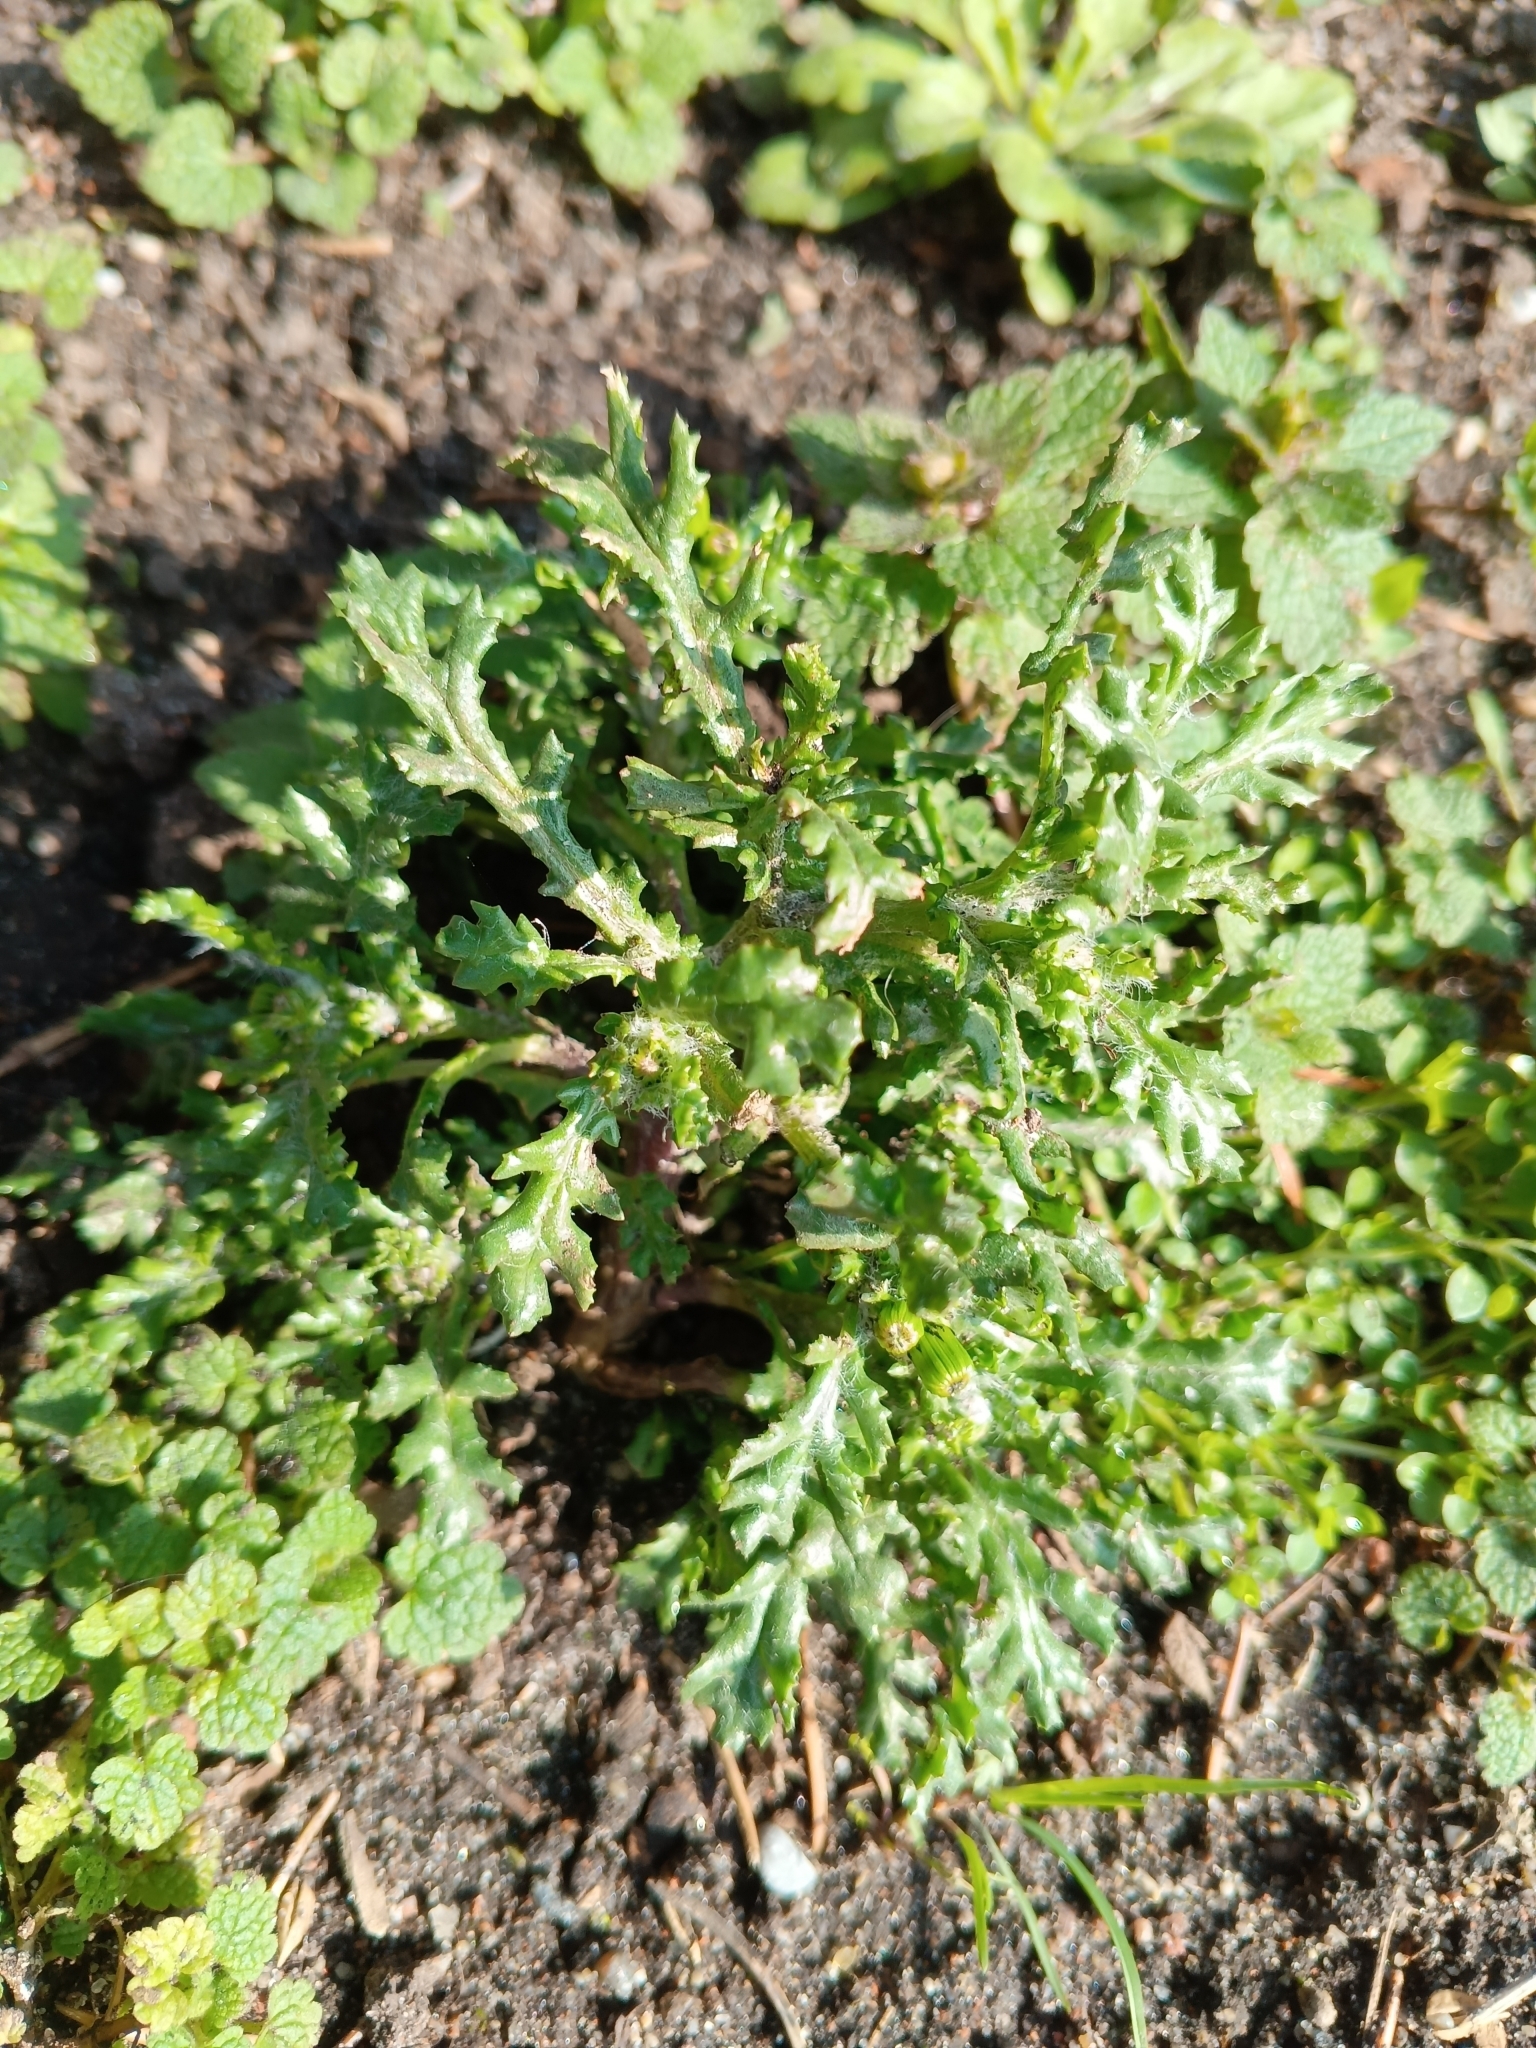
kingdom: Plantae
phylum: Tracheophyta
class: Magnoliopsida
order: Asterales
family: Asteraceae
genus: Senecio
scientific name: Senecio vulgaris
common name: Old-man-in-the-spring
